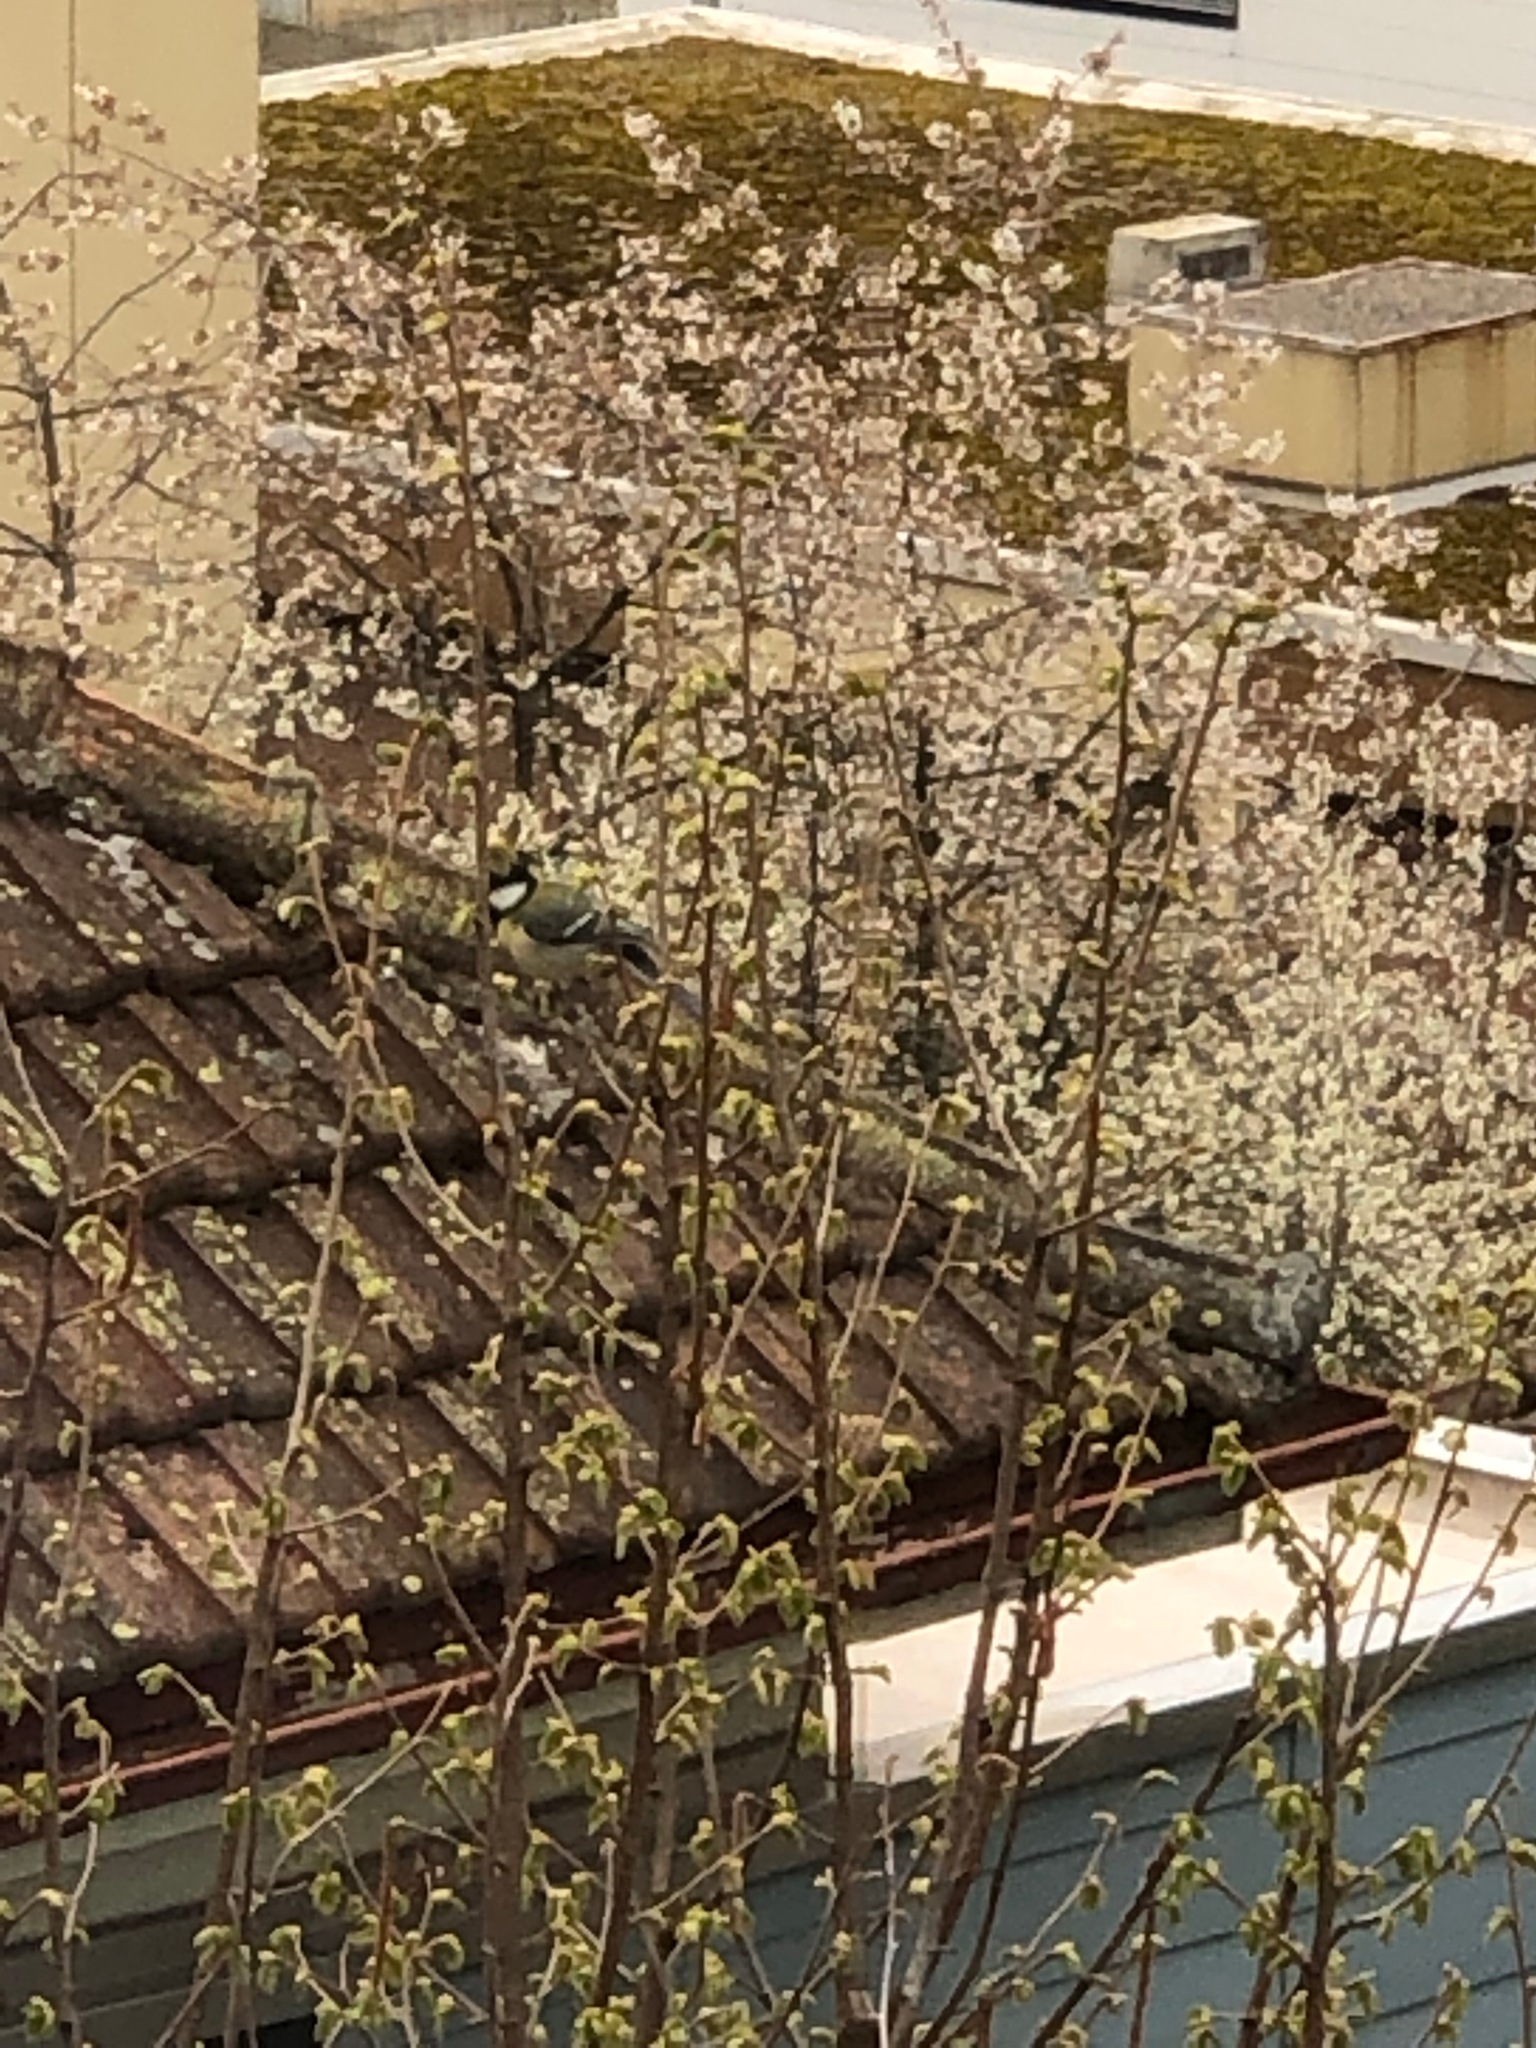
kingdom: Animalia
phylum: Chordata
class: Aves
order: Passeriformes
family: Paridae
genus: Parus
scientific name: Parus major
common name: Great tit
